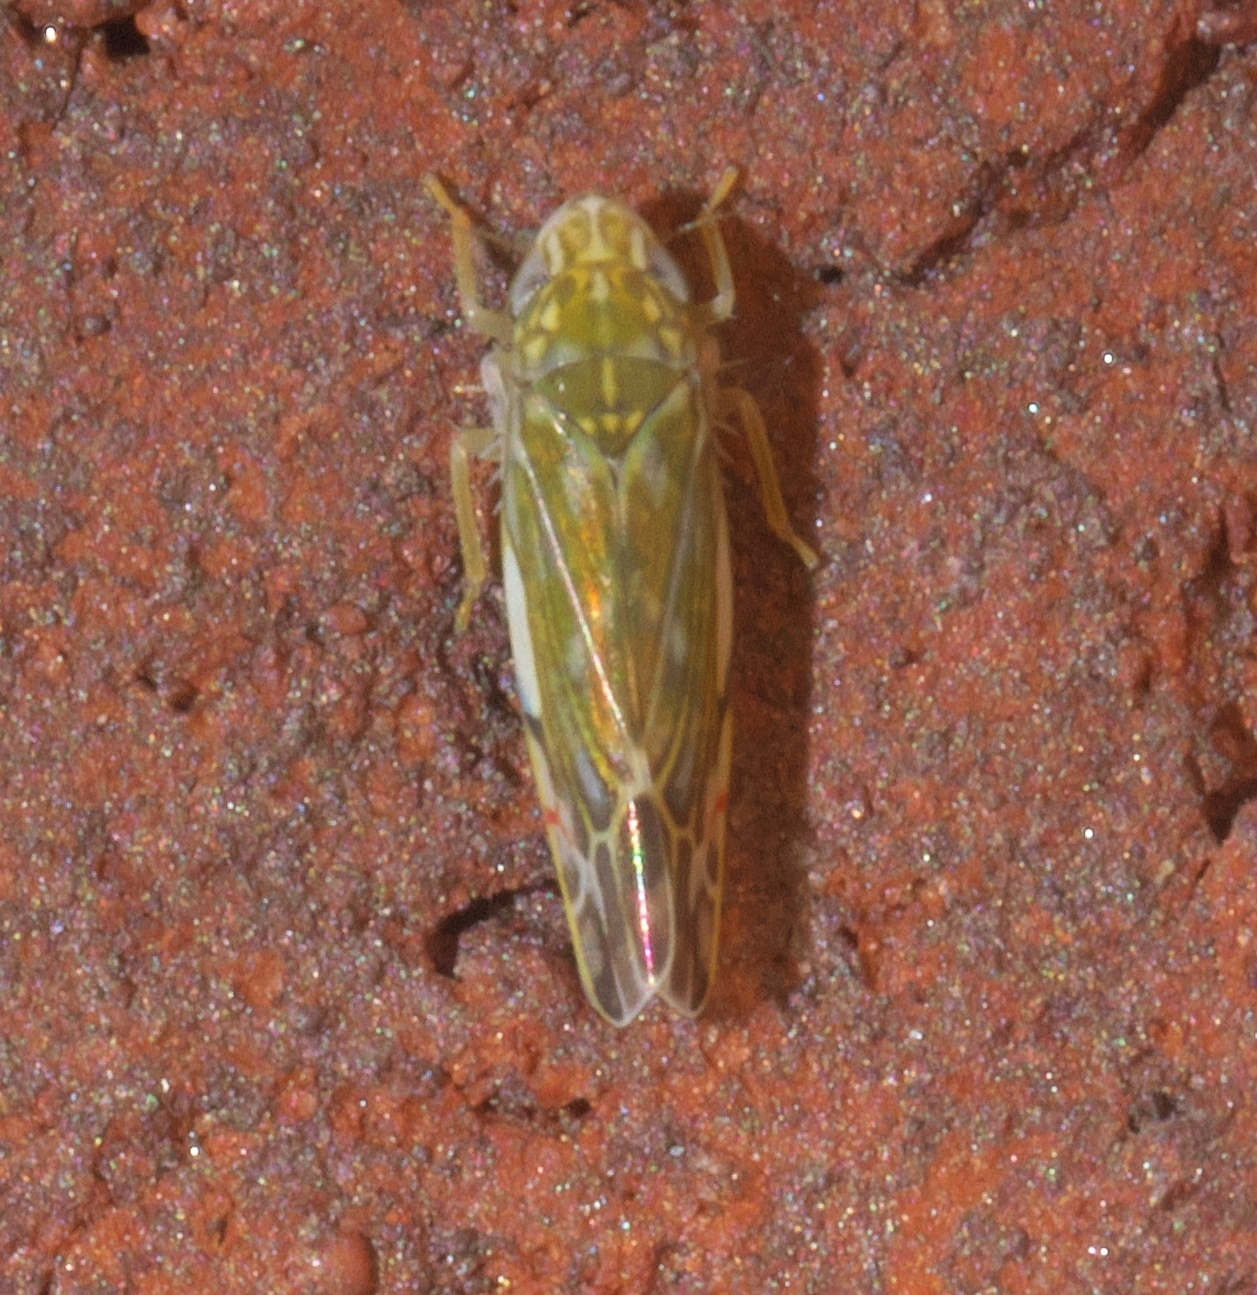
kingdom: Animalia
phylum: Arthropoda
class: Insecta
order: Hemiptera
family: Cicadellidae
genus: Erasmoneura
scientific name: Erasmoneura vulnerata
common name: The wounded leafhopper
